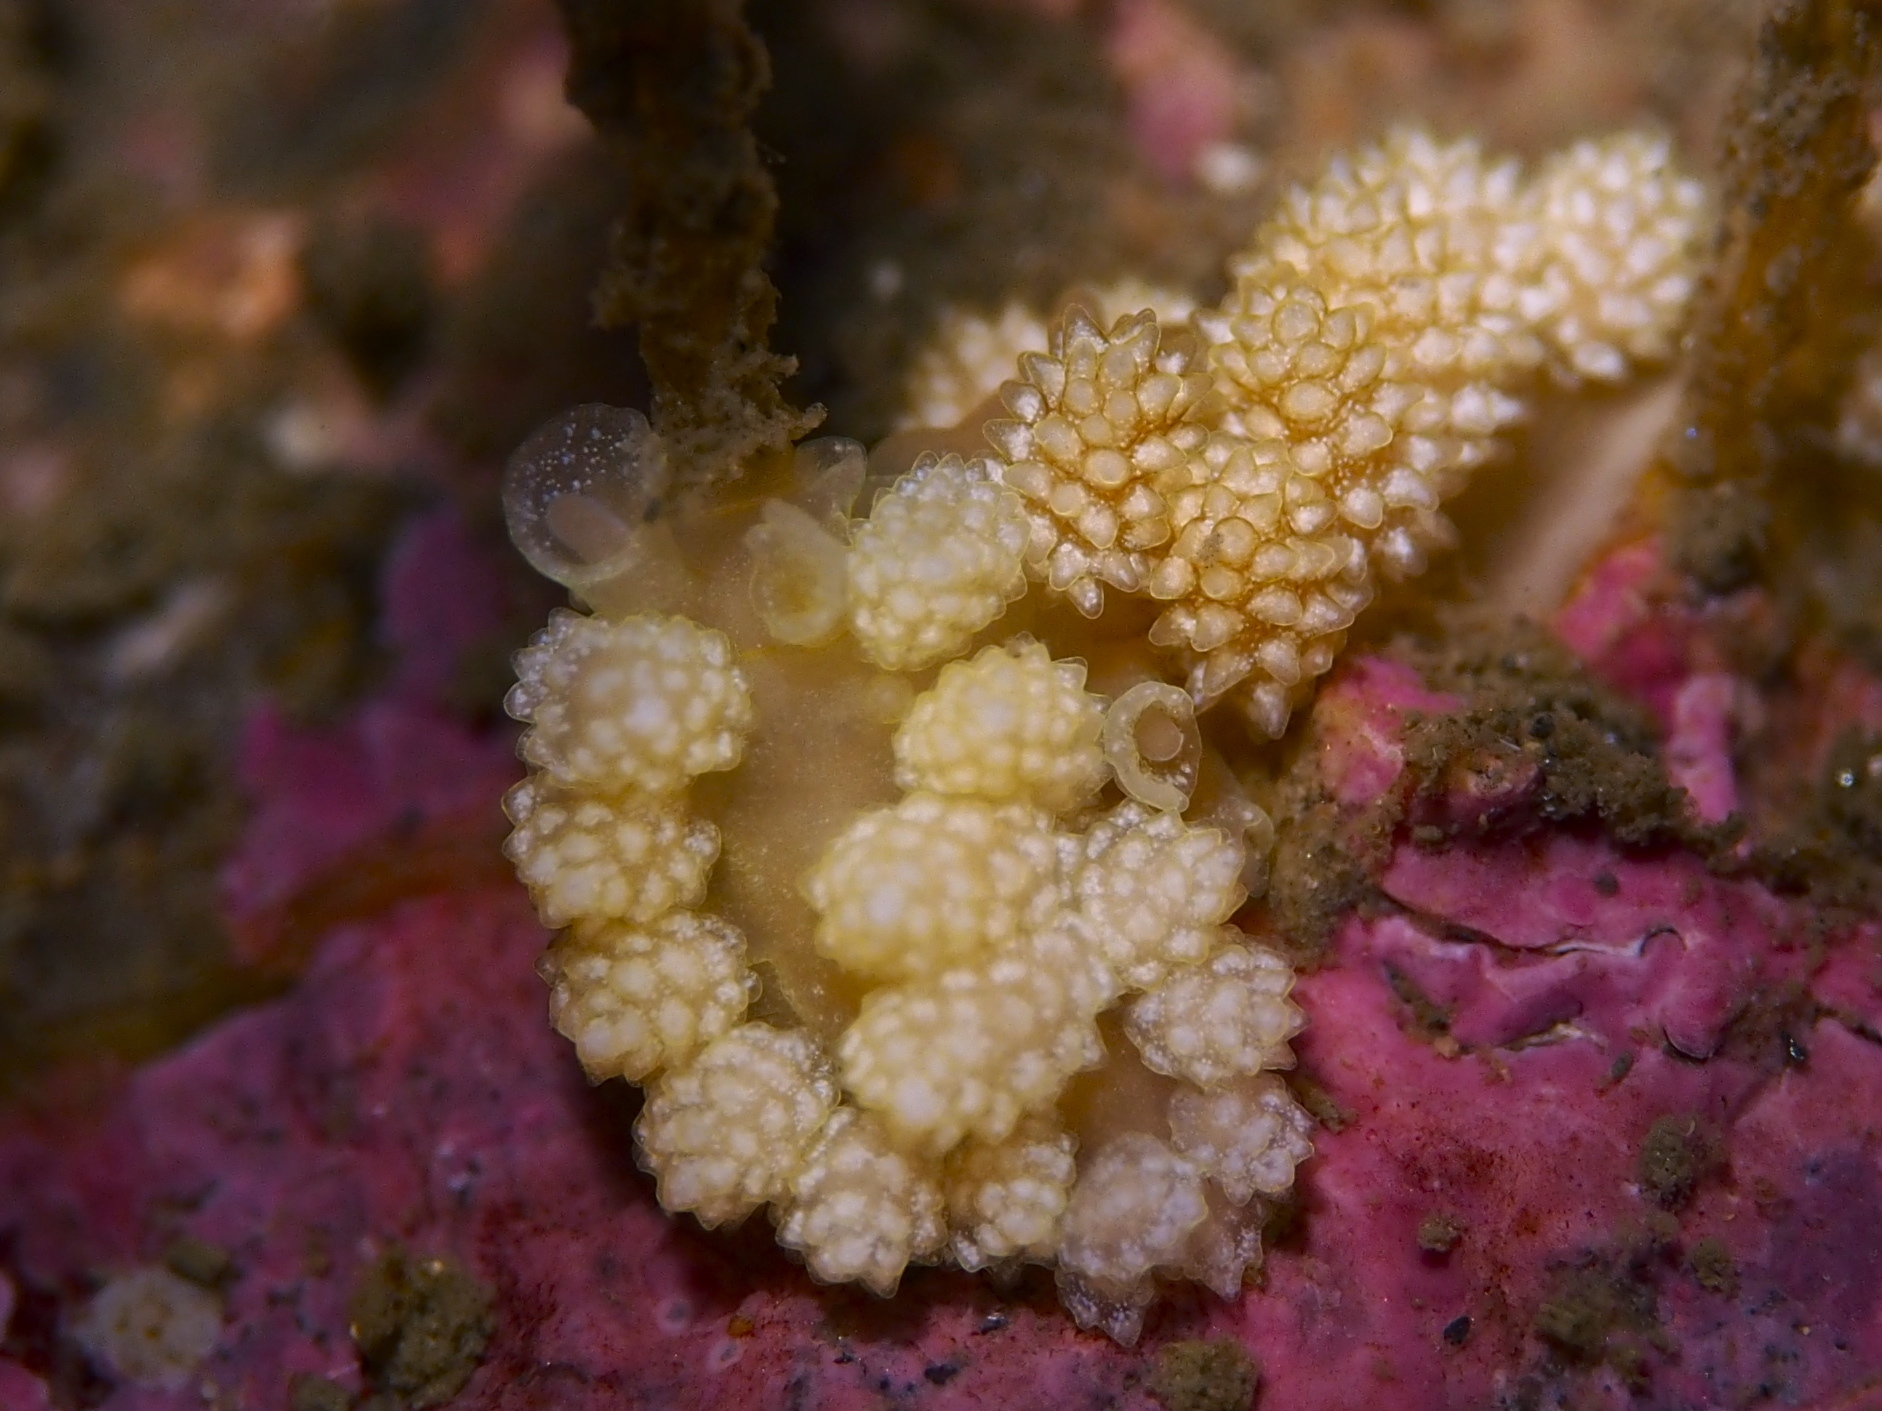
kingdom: Animalia
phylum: Mollusca
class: Gastropoda
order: Nudibranchia
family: Dotidae
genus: Doto
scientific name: Doto fragilis
